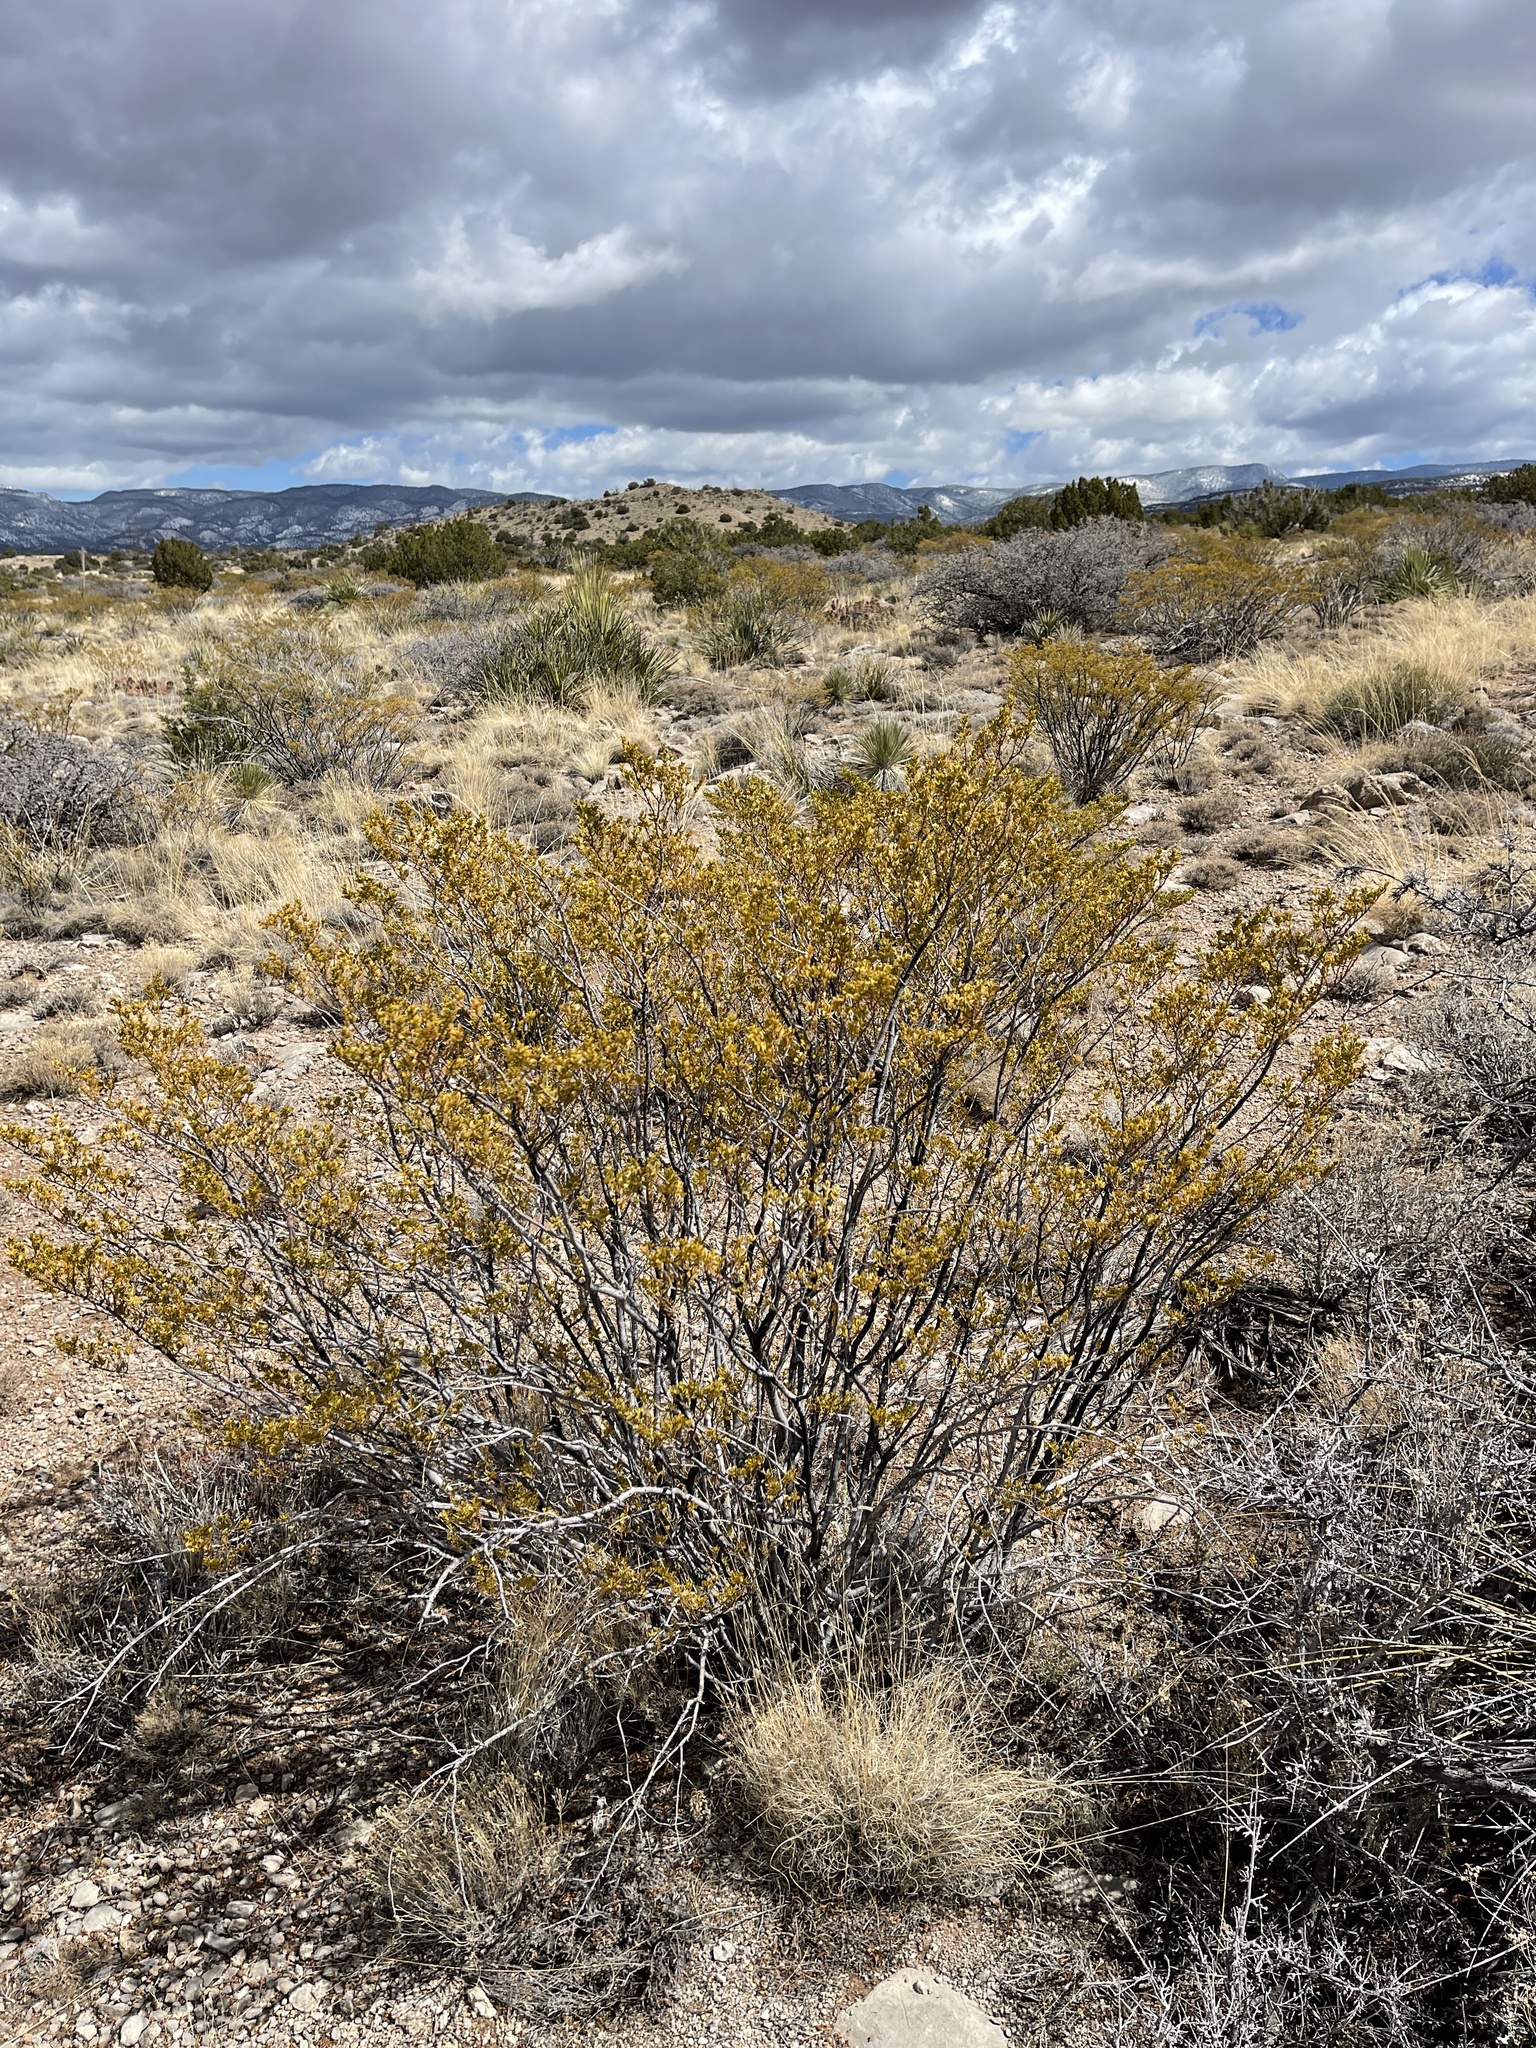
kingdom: Plantae
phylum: Tracheophyta
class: Magnoliopsida
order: Zygophyllales
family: Zygophyllaceae
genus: Larrea
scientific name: Larrea tridentata
